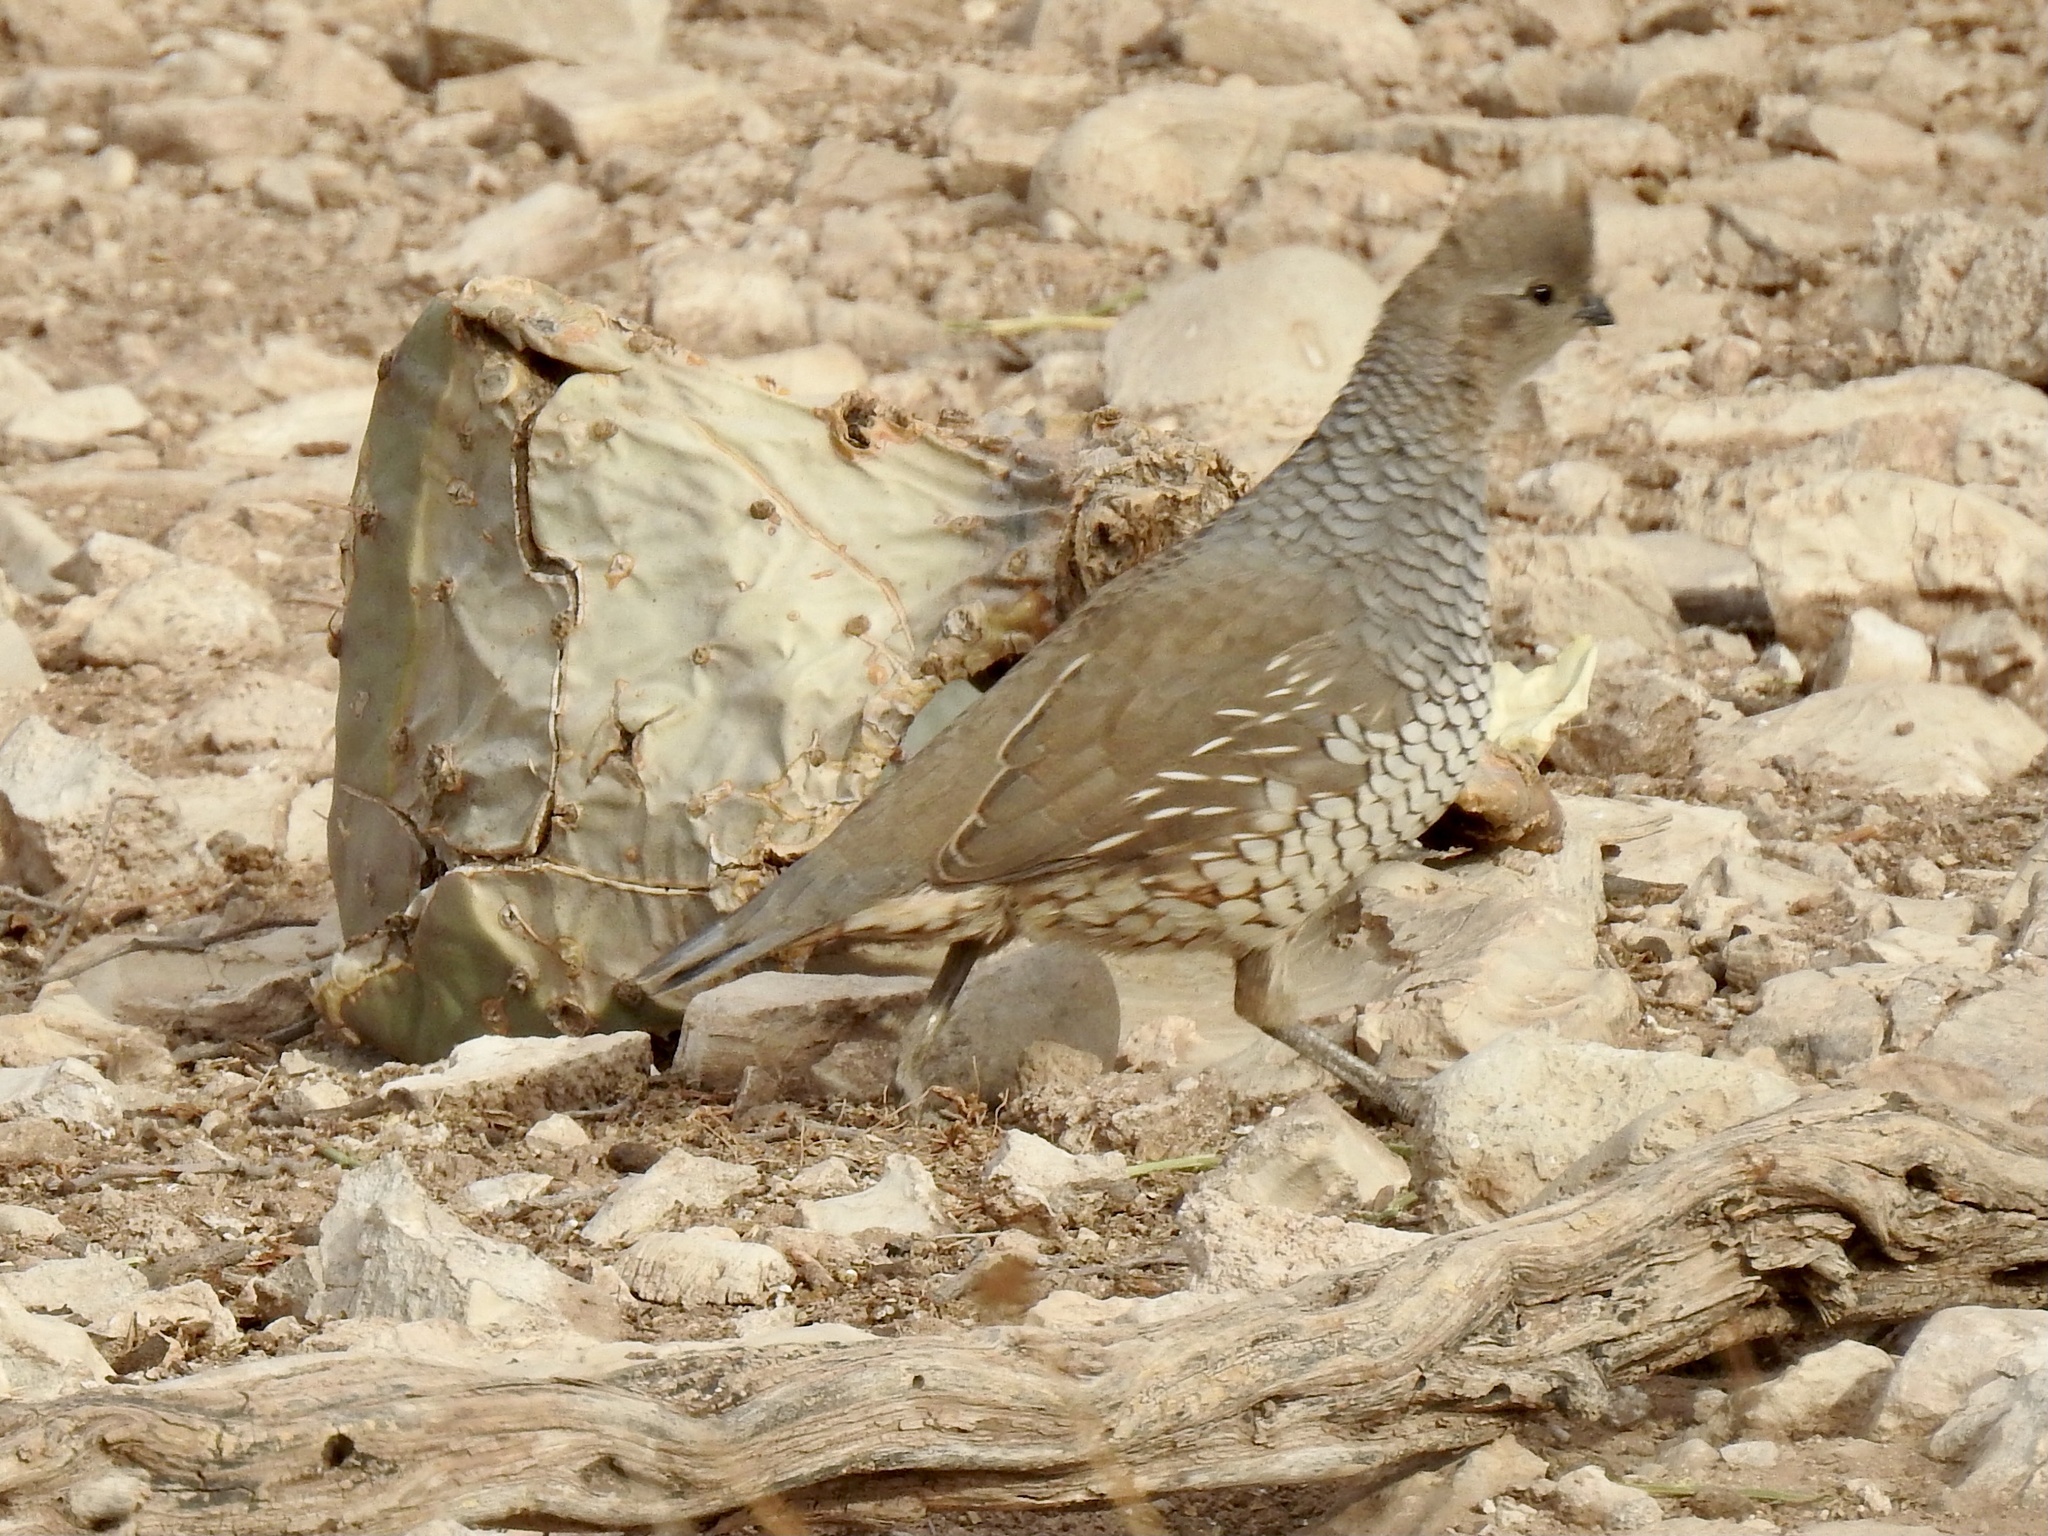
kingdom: Animalia
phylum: Chordata
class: Aves
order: Galliformes
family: Odontophoridae
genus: Callipepla
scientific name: Callipepla squamata
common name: Scaled quail
